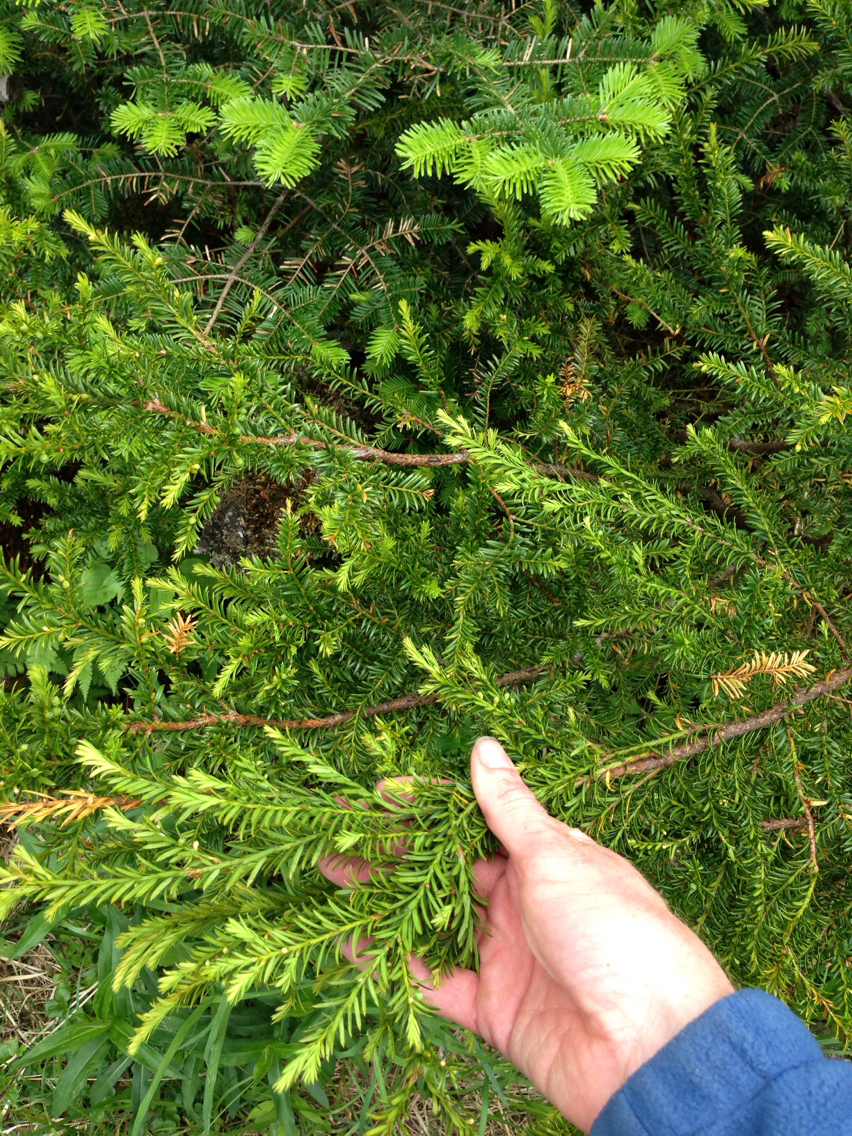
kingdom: Plantae
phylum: Tracheophyta
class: Pinopsida
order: Pinales
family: Taxaceae
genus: Taxus
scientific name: Taxus canadensis
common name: American yew
